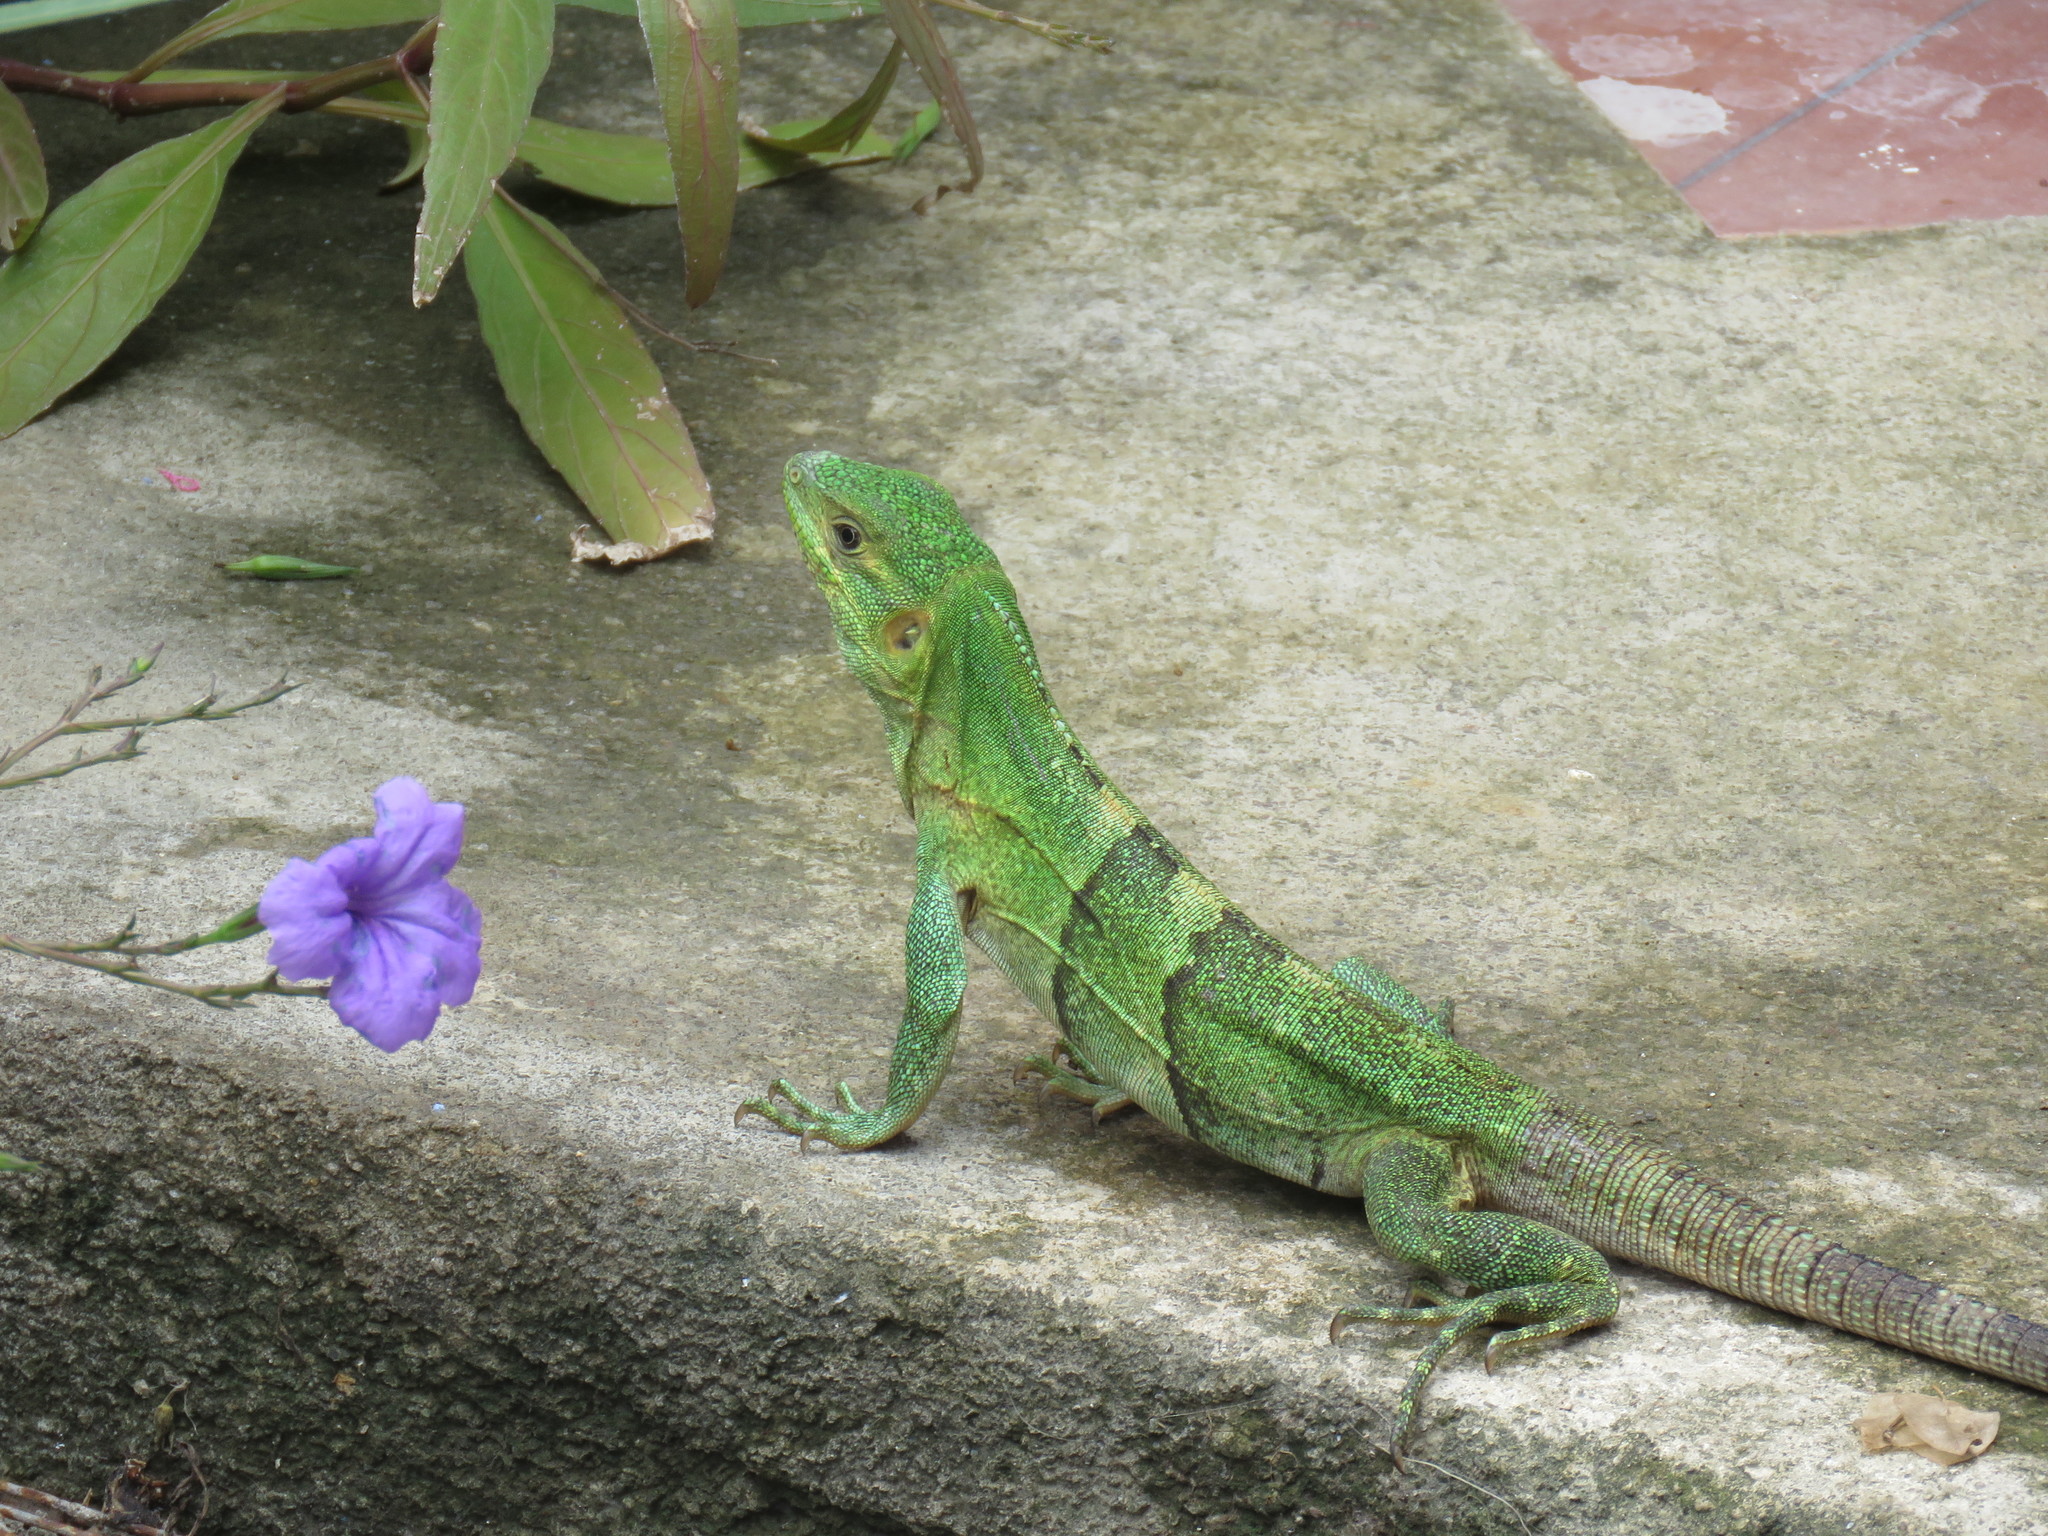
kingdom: Animalia
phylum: Chordata
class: Squamata
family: Iguanidae
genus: Ctenosaura
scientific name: Ctenosaura similis
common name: Black spiny-tailed iguana
